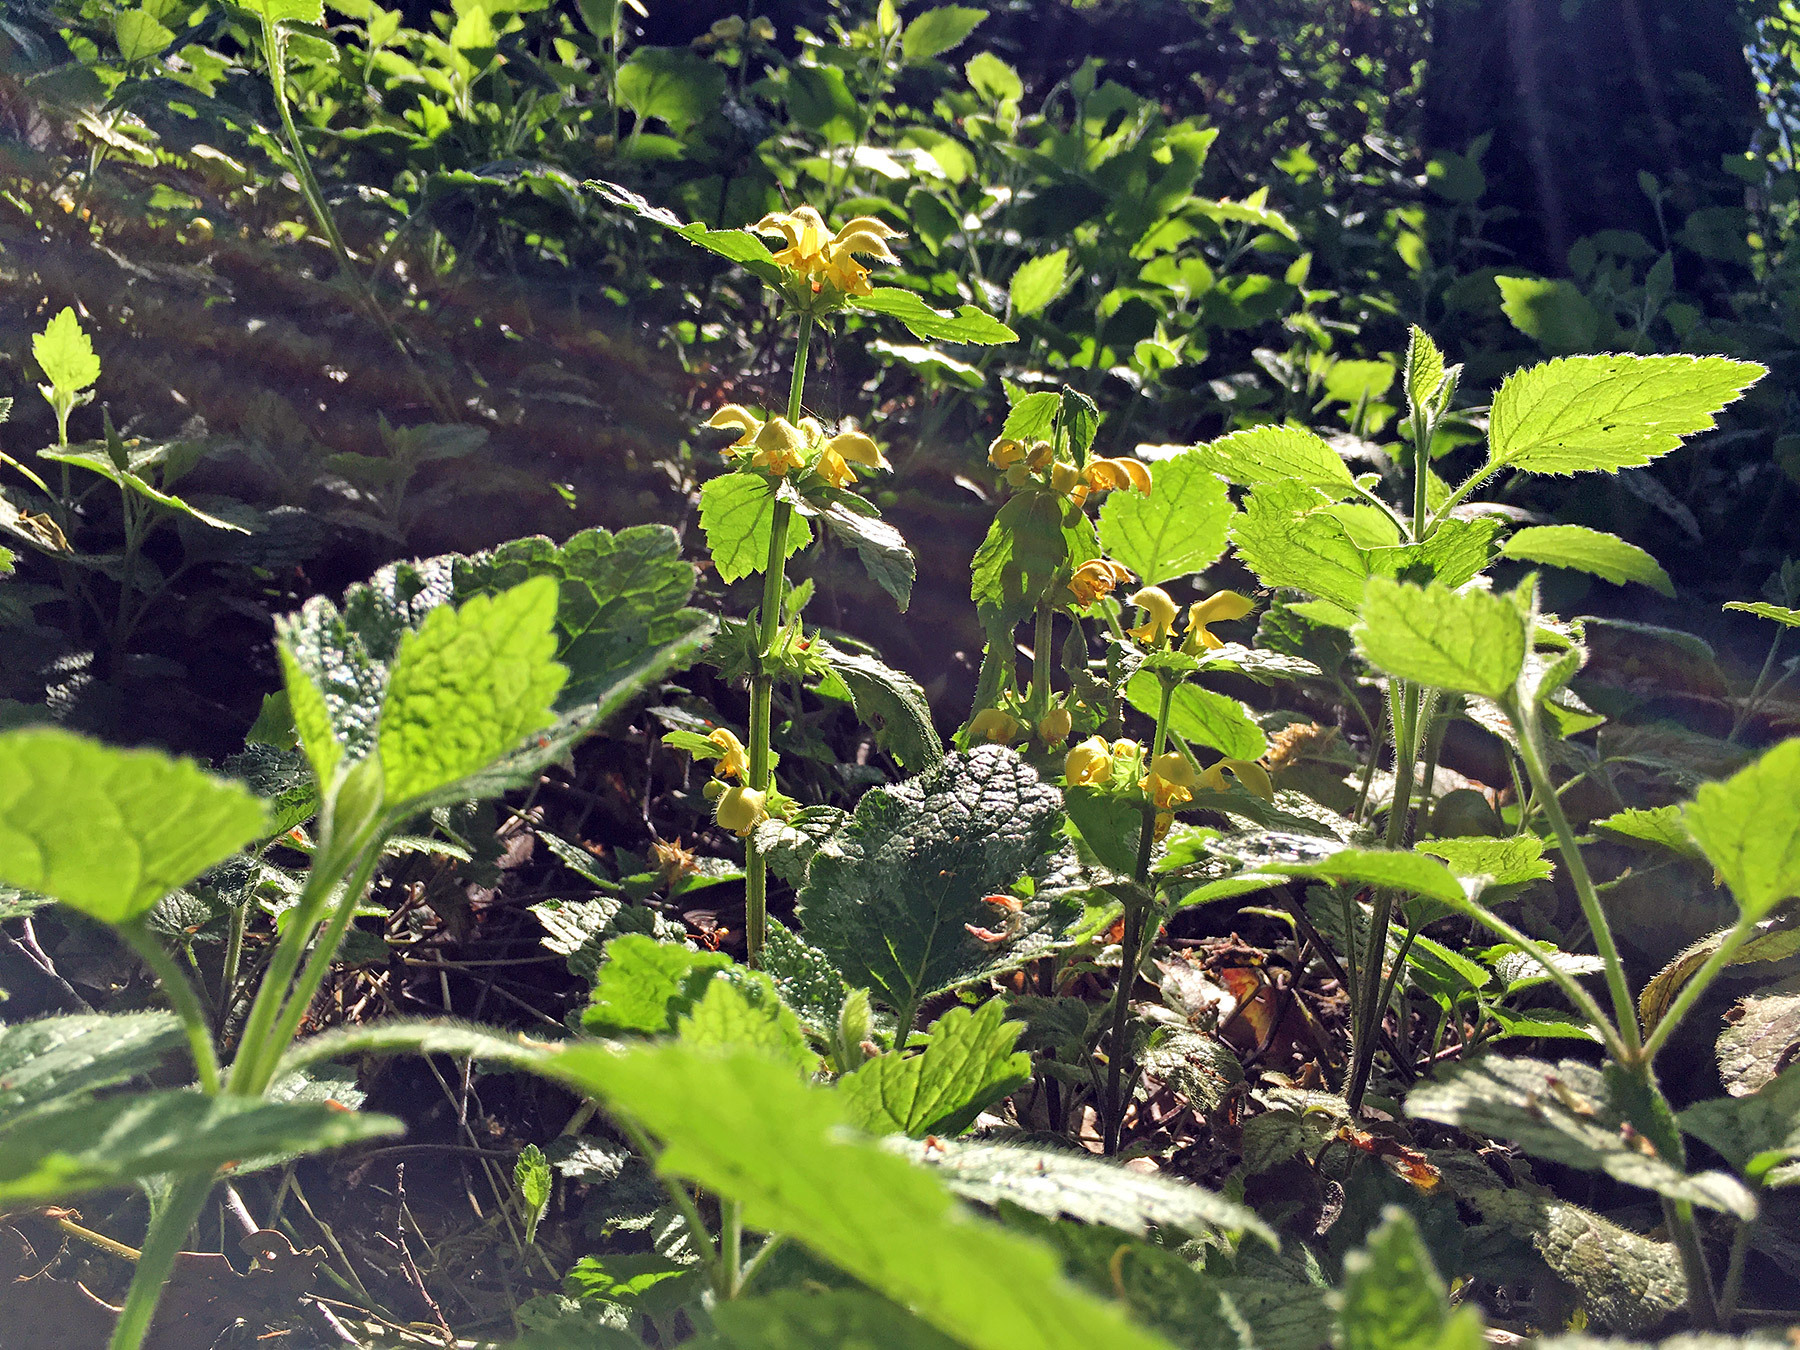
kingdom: Plantae
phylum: Tracheophyta
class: Magnoliopsida
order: Lamiales
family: Lamiaceae
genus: Lamium
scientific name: Lamium galeobdolon
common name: Yellow archangel
